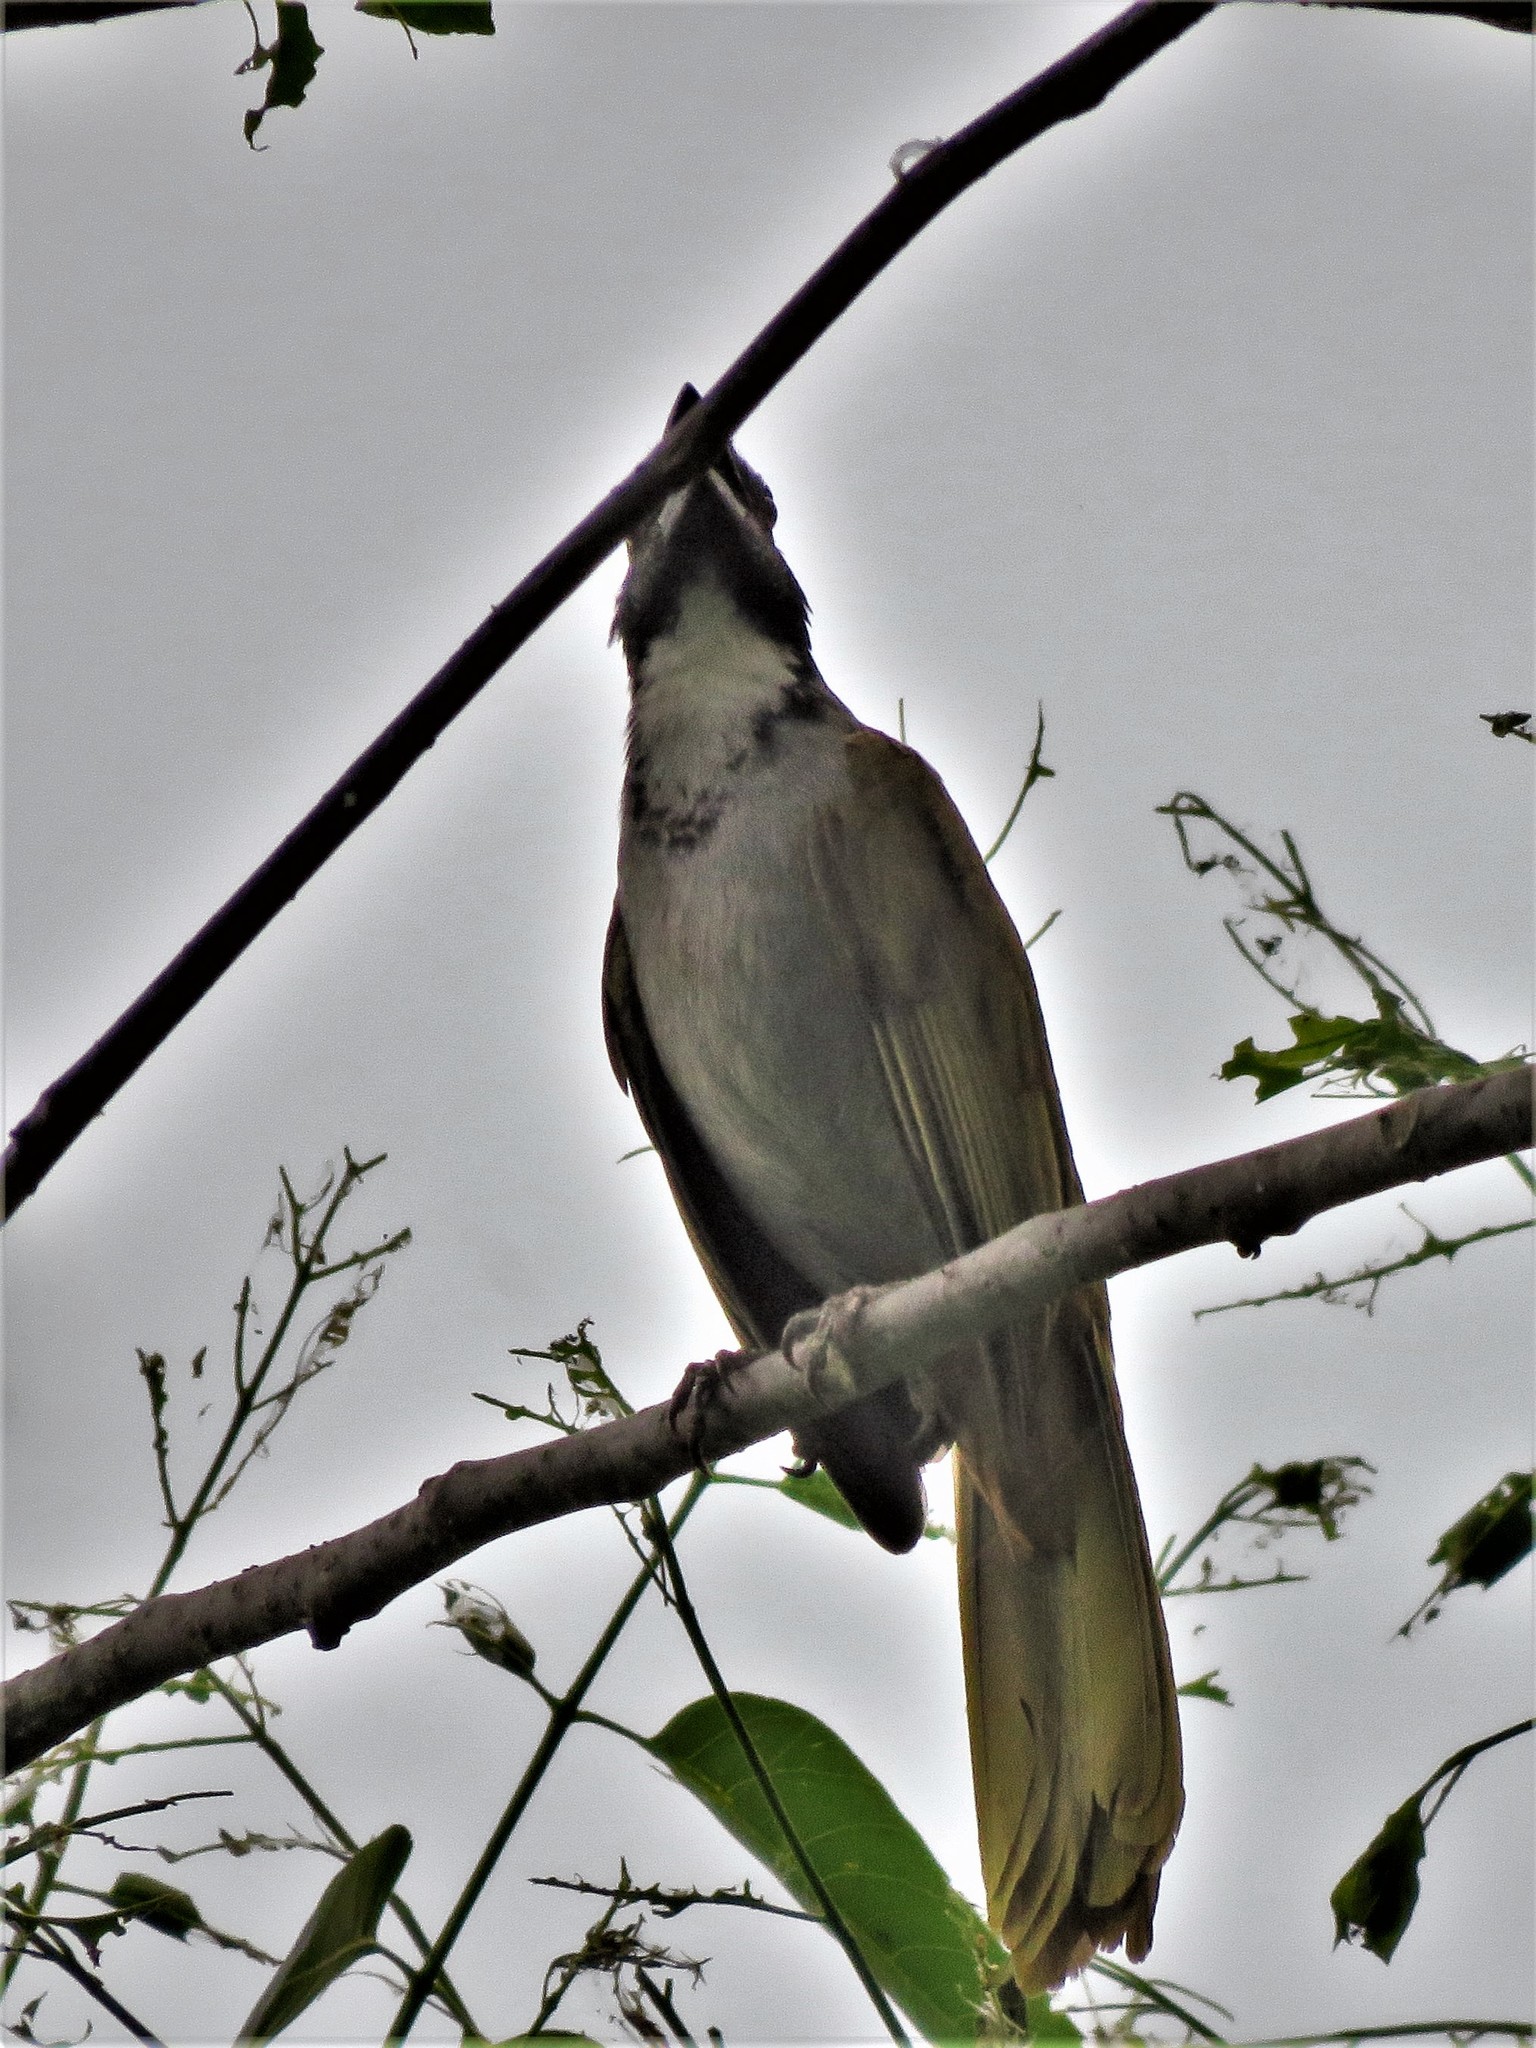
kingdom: Animalia
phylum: Chordata
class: Aves
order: Passeriformes
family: Thraupidae
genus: Saltator
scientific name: Saltator atriceps
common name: Black-headed saltator
